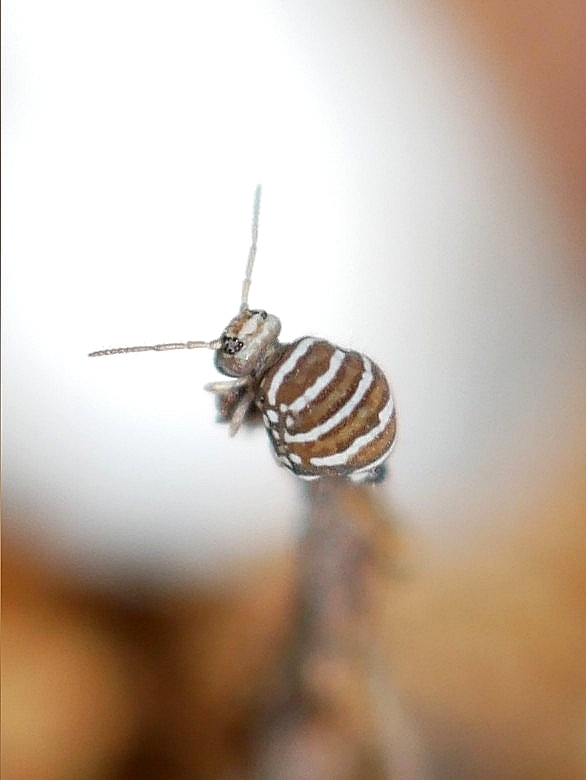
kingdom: Animalia
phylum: Arthropoda
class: Collembola
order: Symphypleona
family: Bourletiellidae
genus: Fasciosminthurus
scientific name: Fasciosminthurus quinquefasciatus
